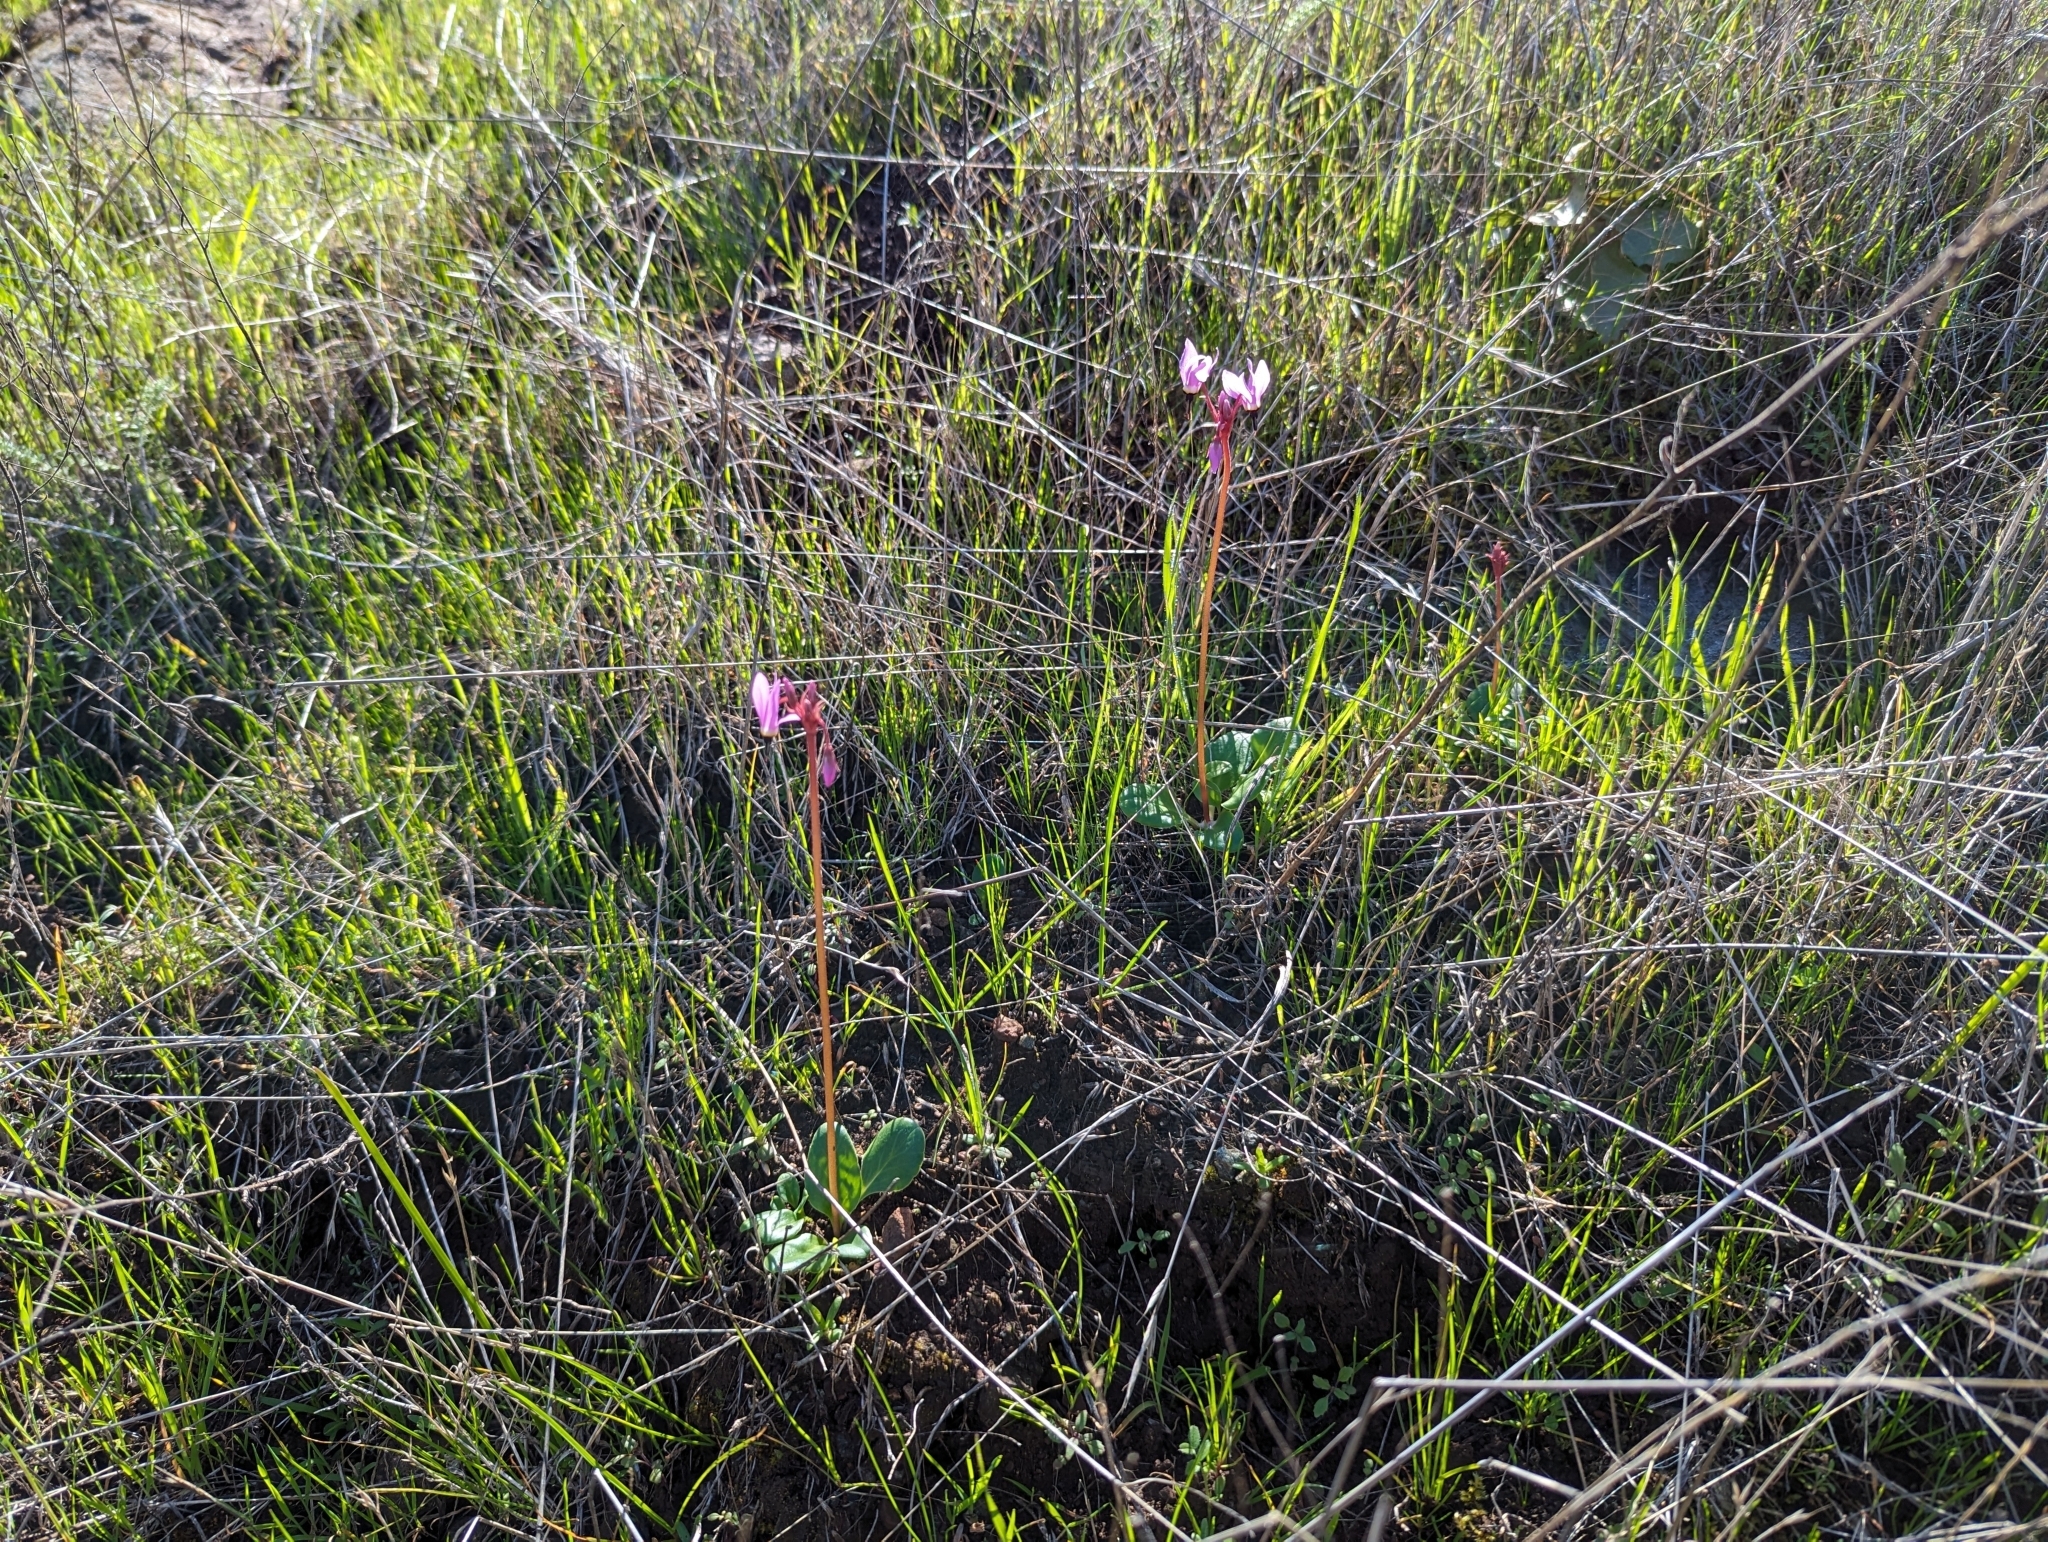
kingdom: Plantae
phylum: Tracheophyta
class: Magnoliopsida
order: Ericales
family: Primulaceae
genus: Dodecatheon
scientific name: Dodecatheon hendersonii
